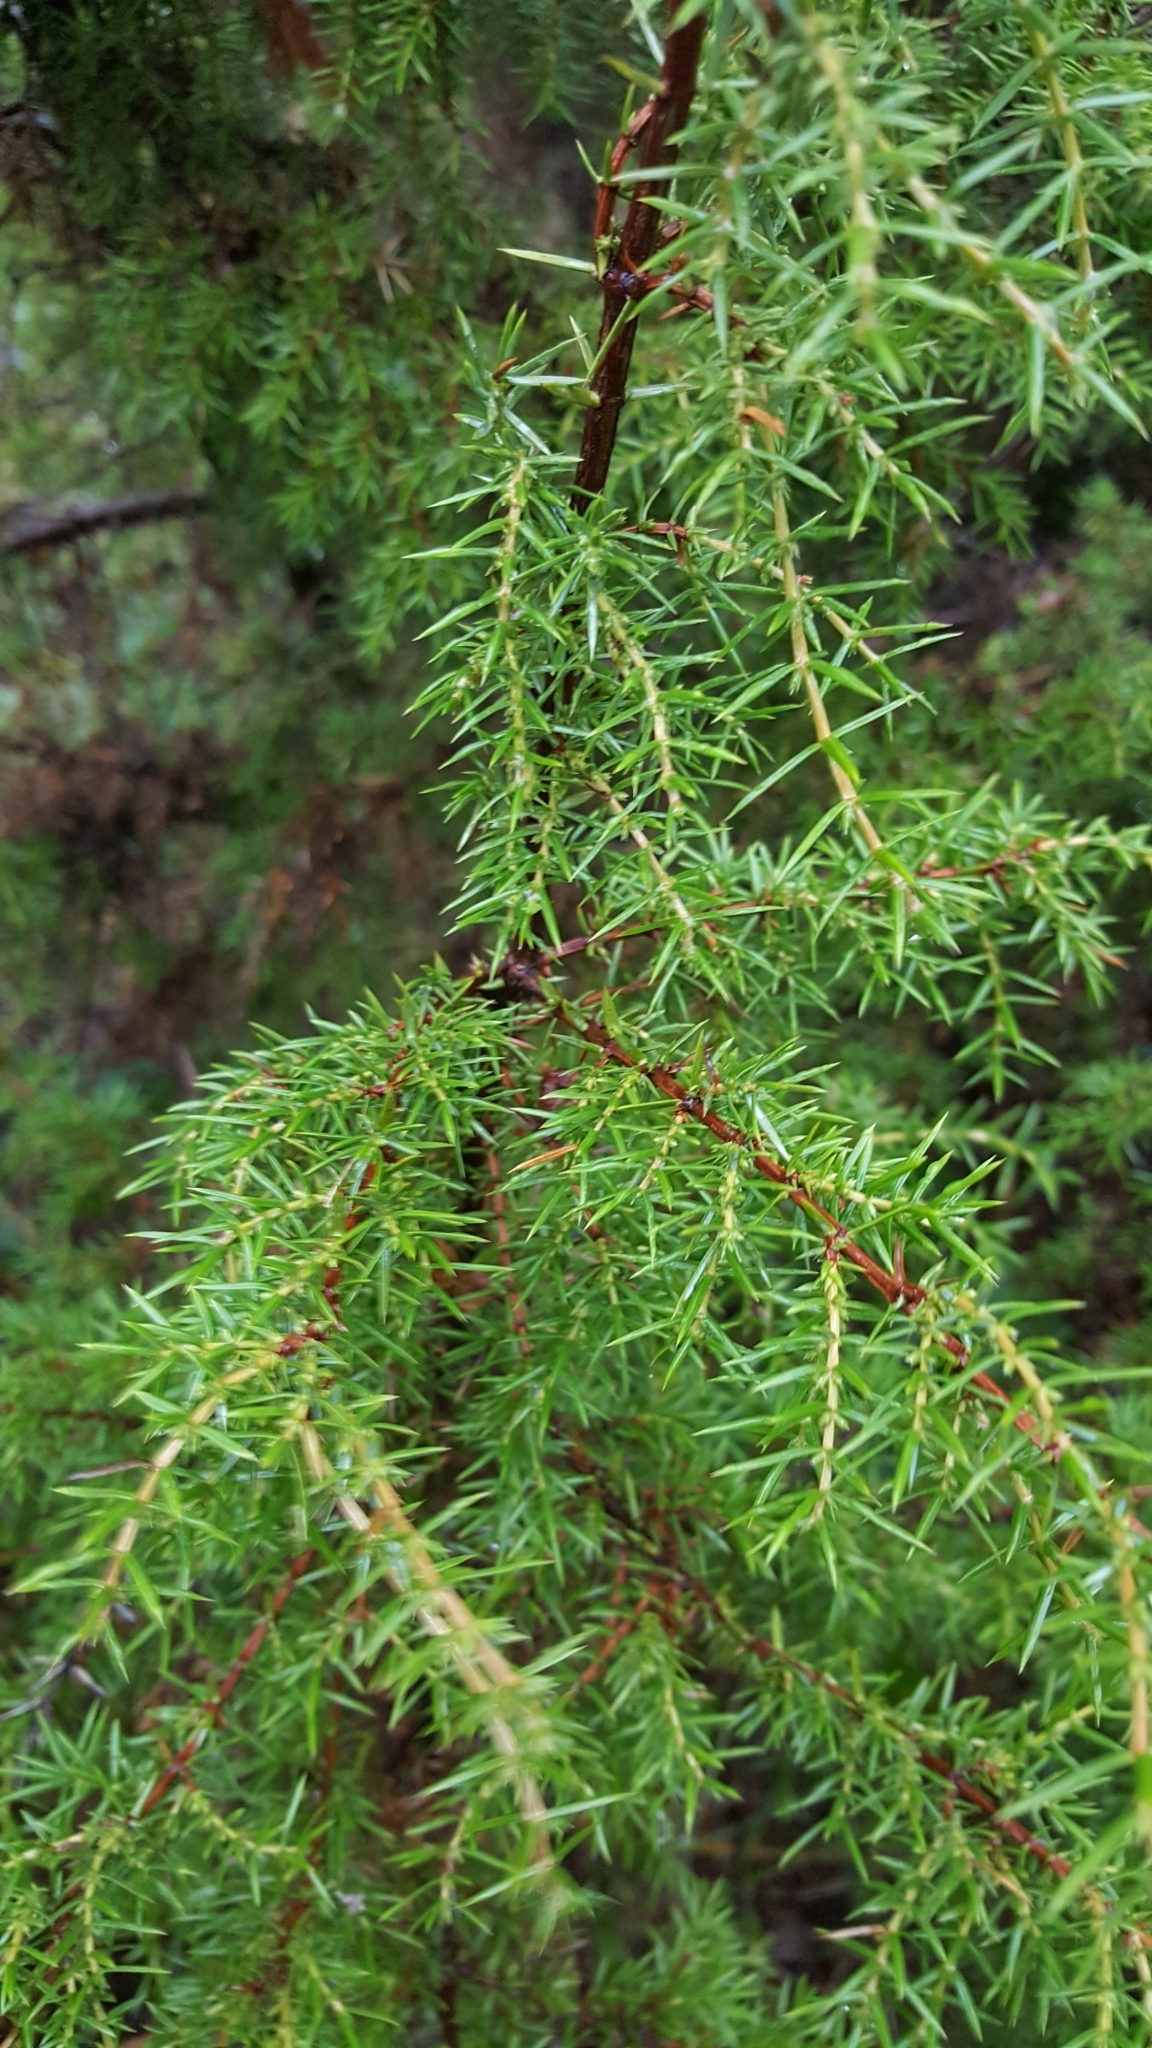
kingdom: Plantae
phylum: Tracheophyta
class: Pinopsida
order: Pinales
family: Cupressaceae
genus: Juniperus
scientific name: Juniperus communis
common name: Common juniper
